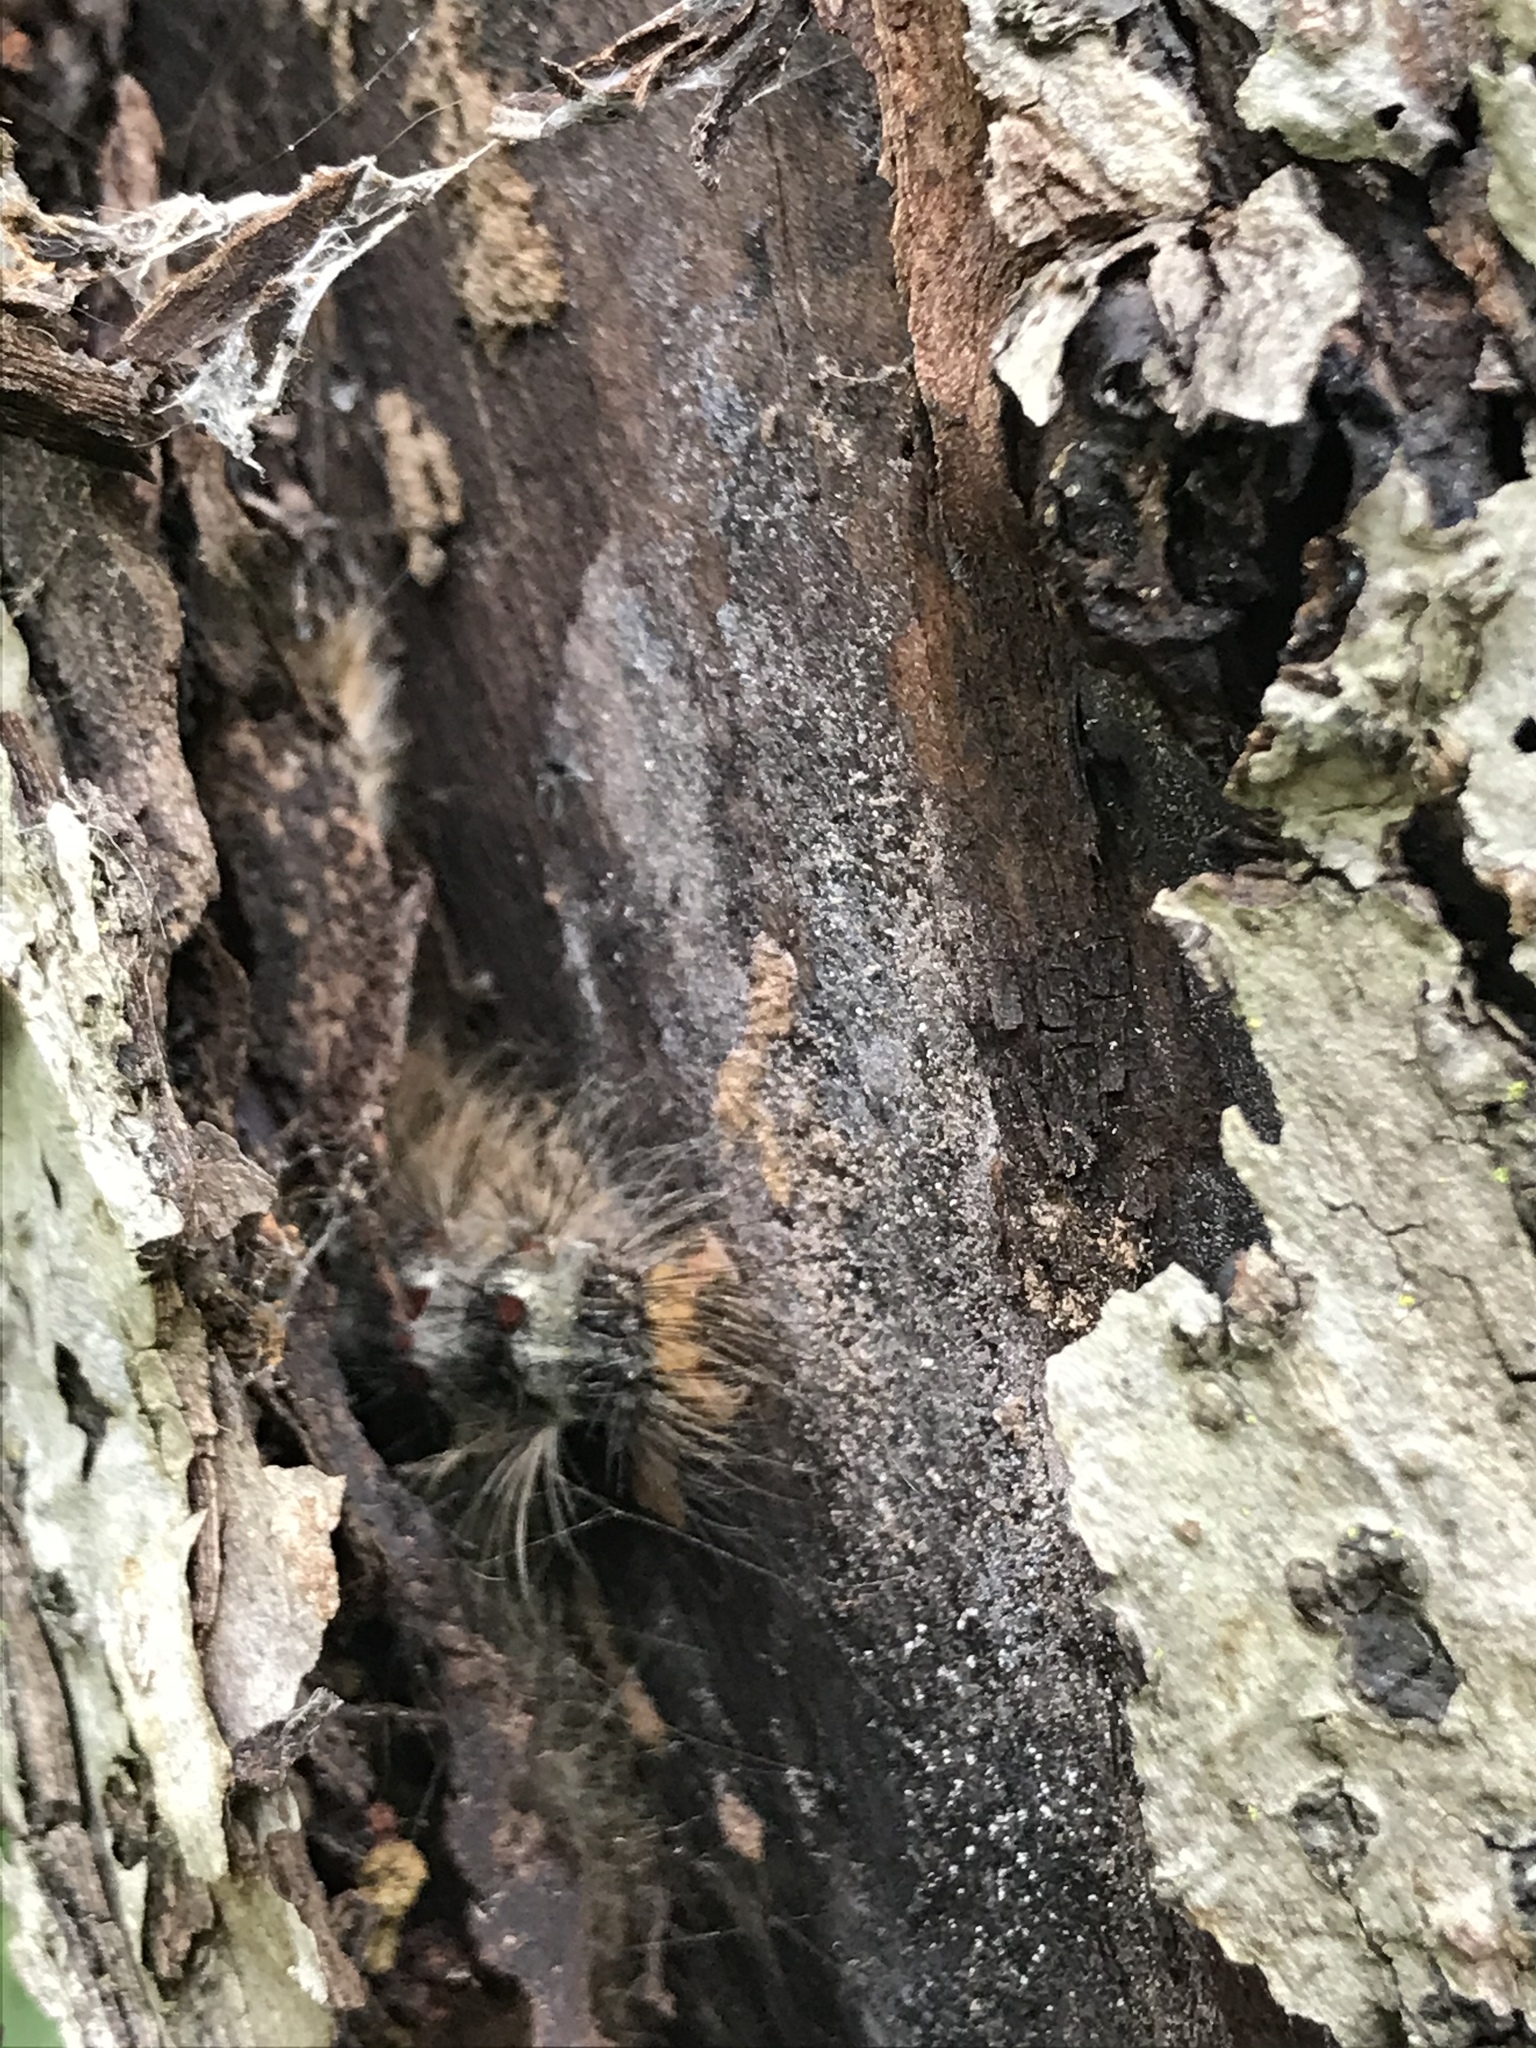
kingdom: Animalia
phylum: Arthropoda
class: Insecta
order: Lepidoptera
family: Erebidae
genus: Lymantria
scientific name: Lymantria dispar
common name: Gypsy moth
